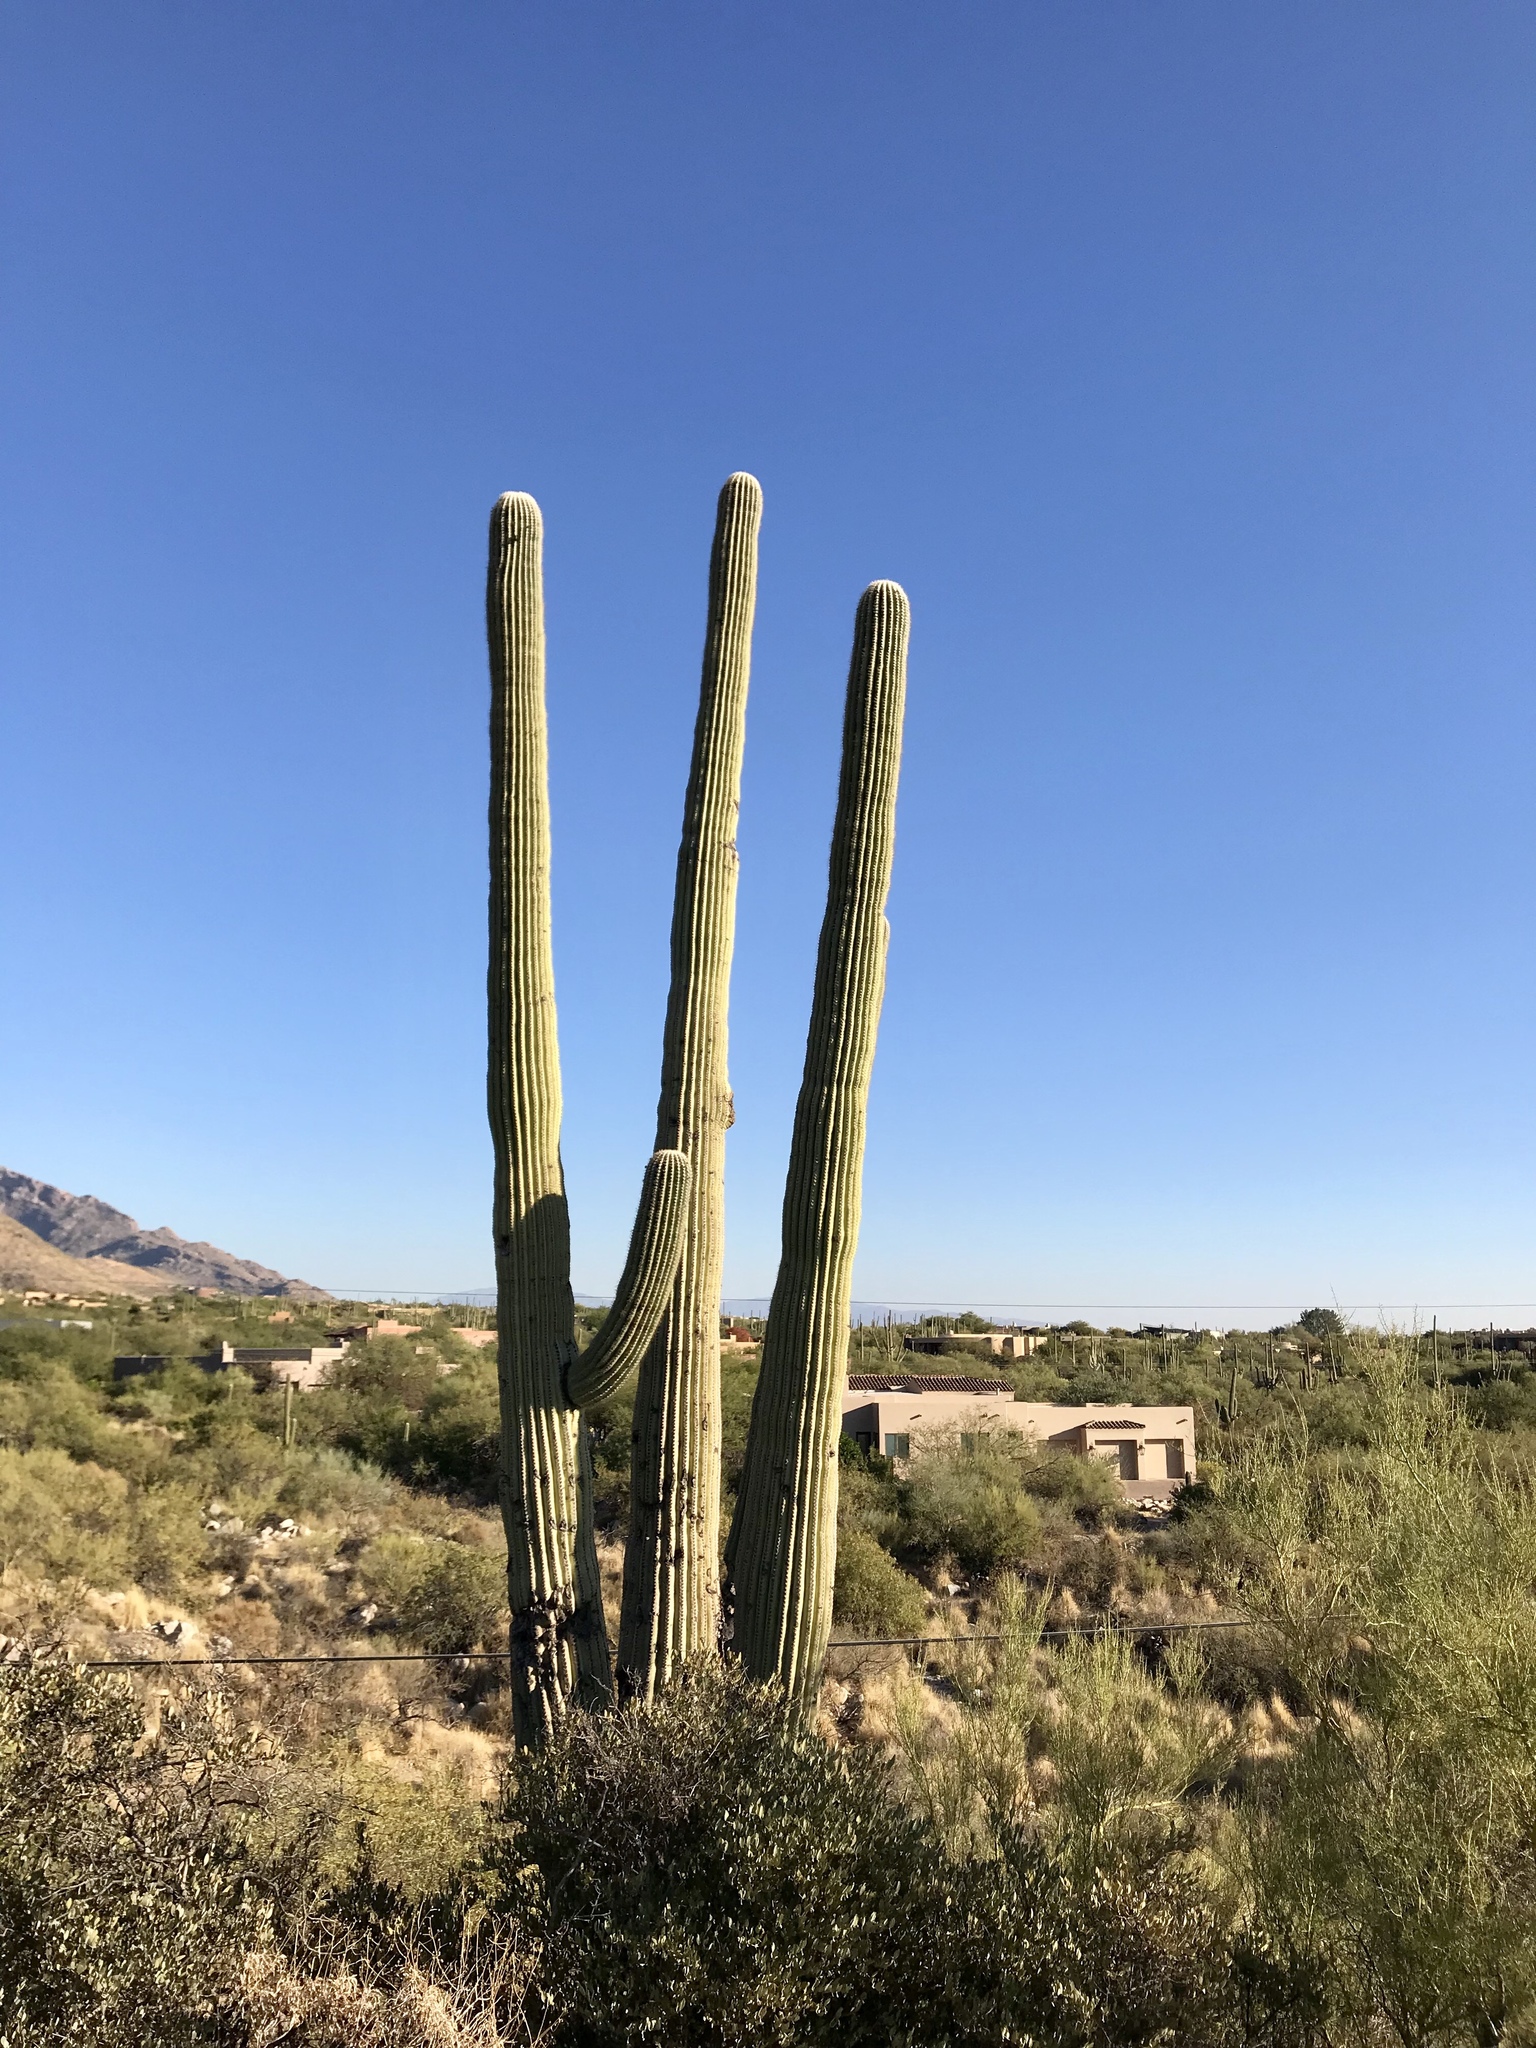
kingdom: Plantae
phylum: Tracheophyta
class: Magnoliopsida
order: Caryophyllales
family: Cactaceae
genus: Carnegiea
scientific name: Carnegiea gigantea
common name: Saguaro
